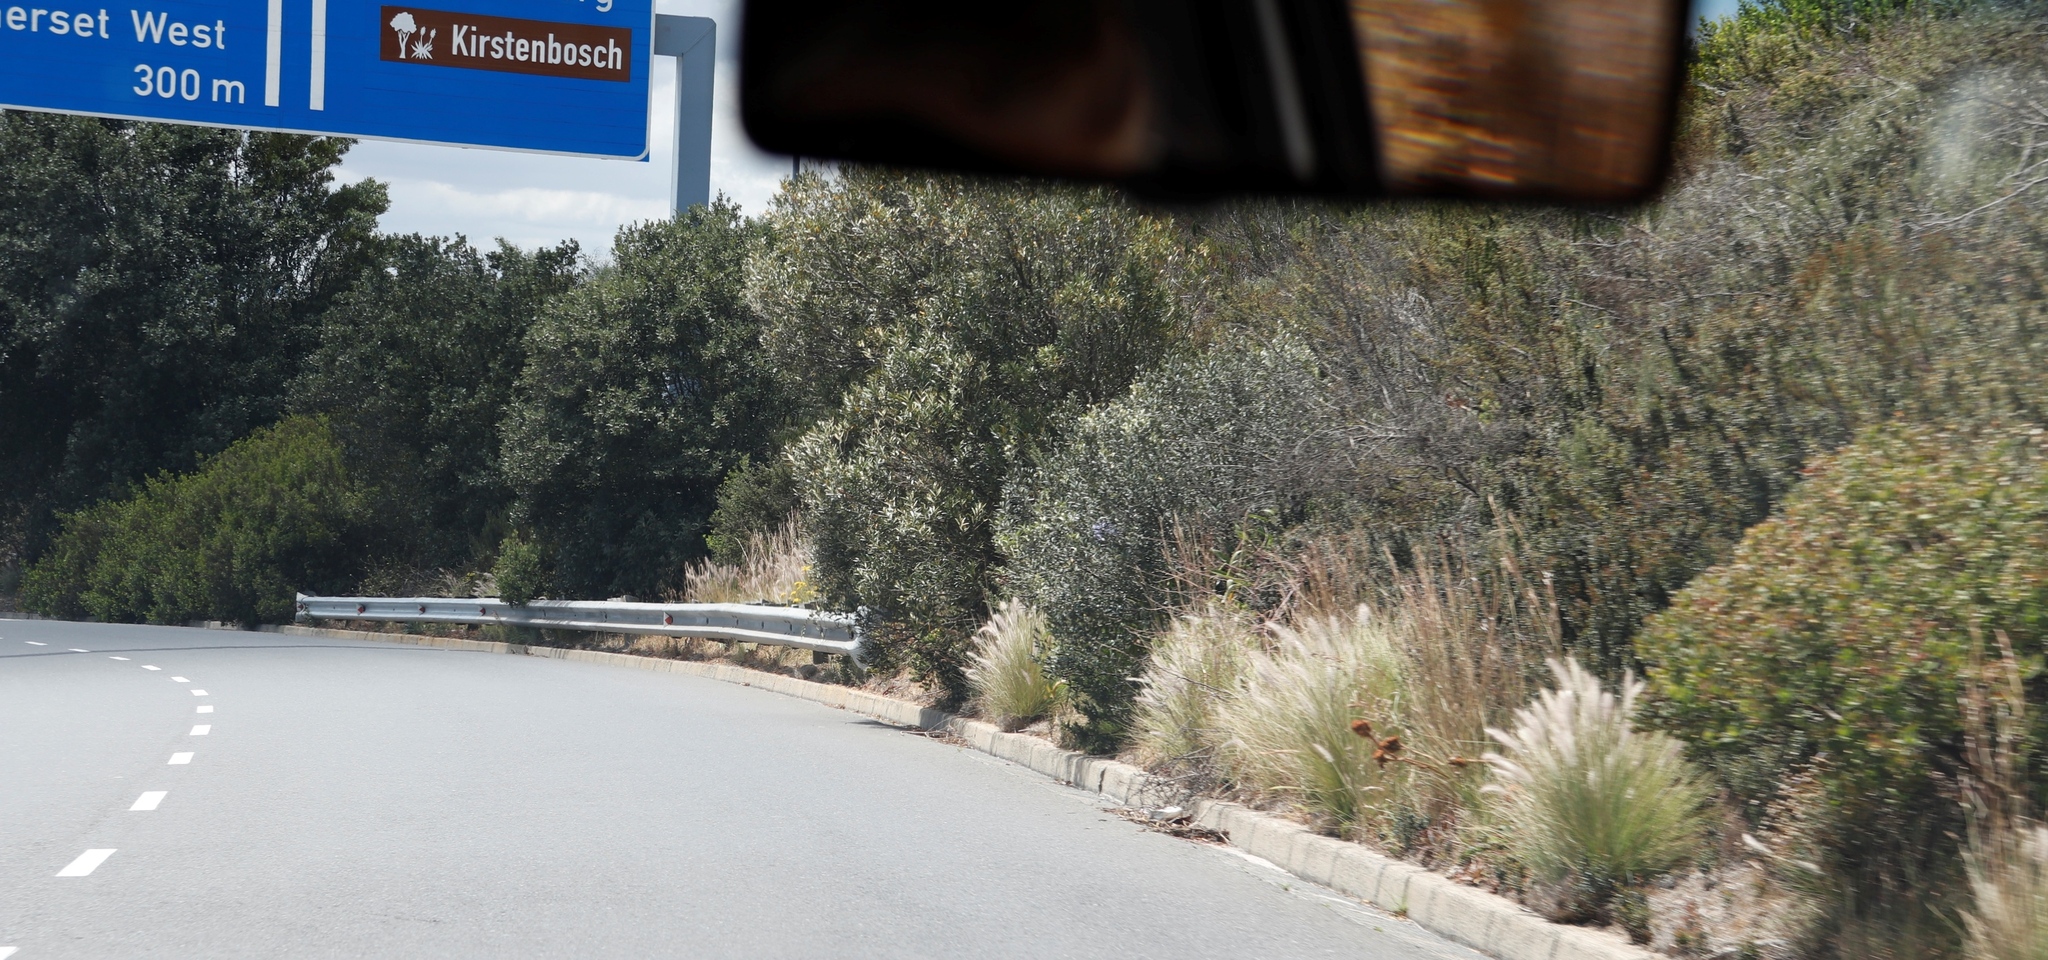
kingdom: Plantae
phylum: Tracheophyta
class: Liliopsida
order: Poales
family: Poaceae
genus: Cenchrus
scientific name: Cenchrus setaceus
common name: Crimson fountaingrass
